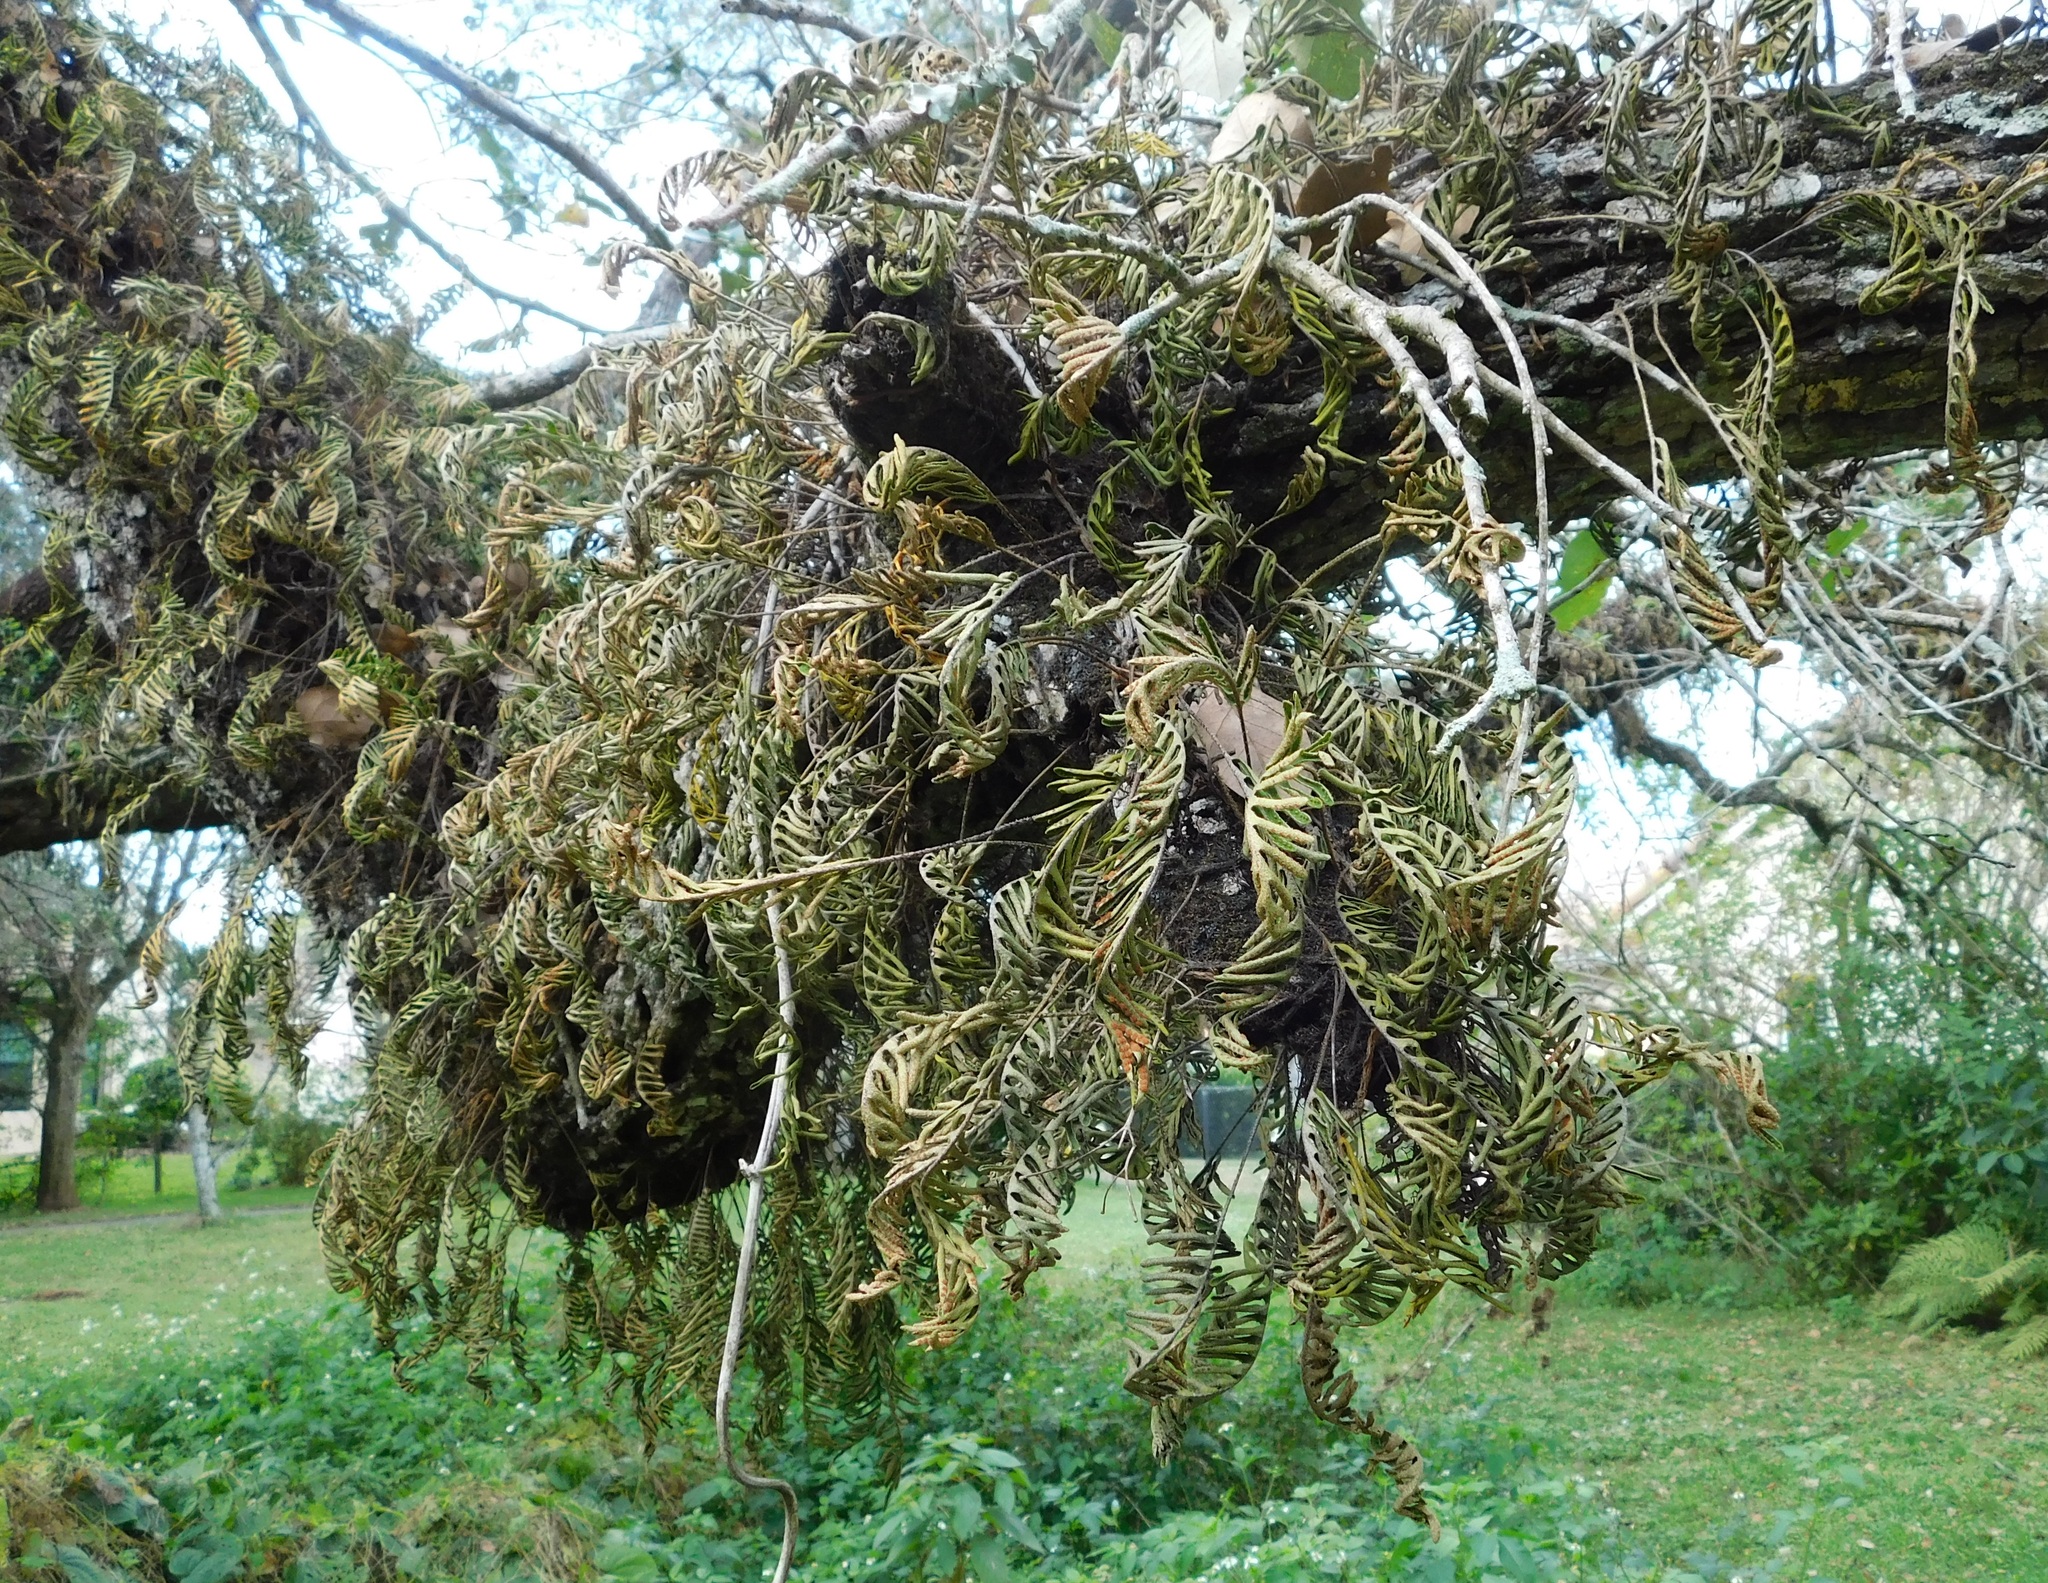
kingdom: Plantae
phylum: Tracheophyta
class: Polypodiopsida
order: Polypodiales
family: Polypodiaceae
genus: Pleopeltis
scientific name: Pleopeltis michauxiana
